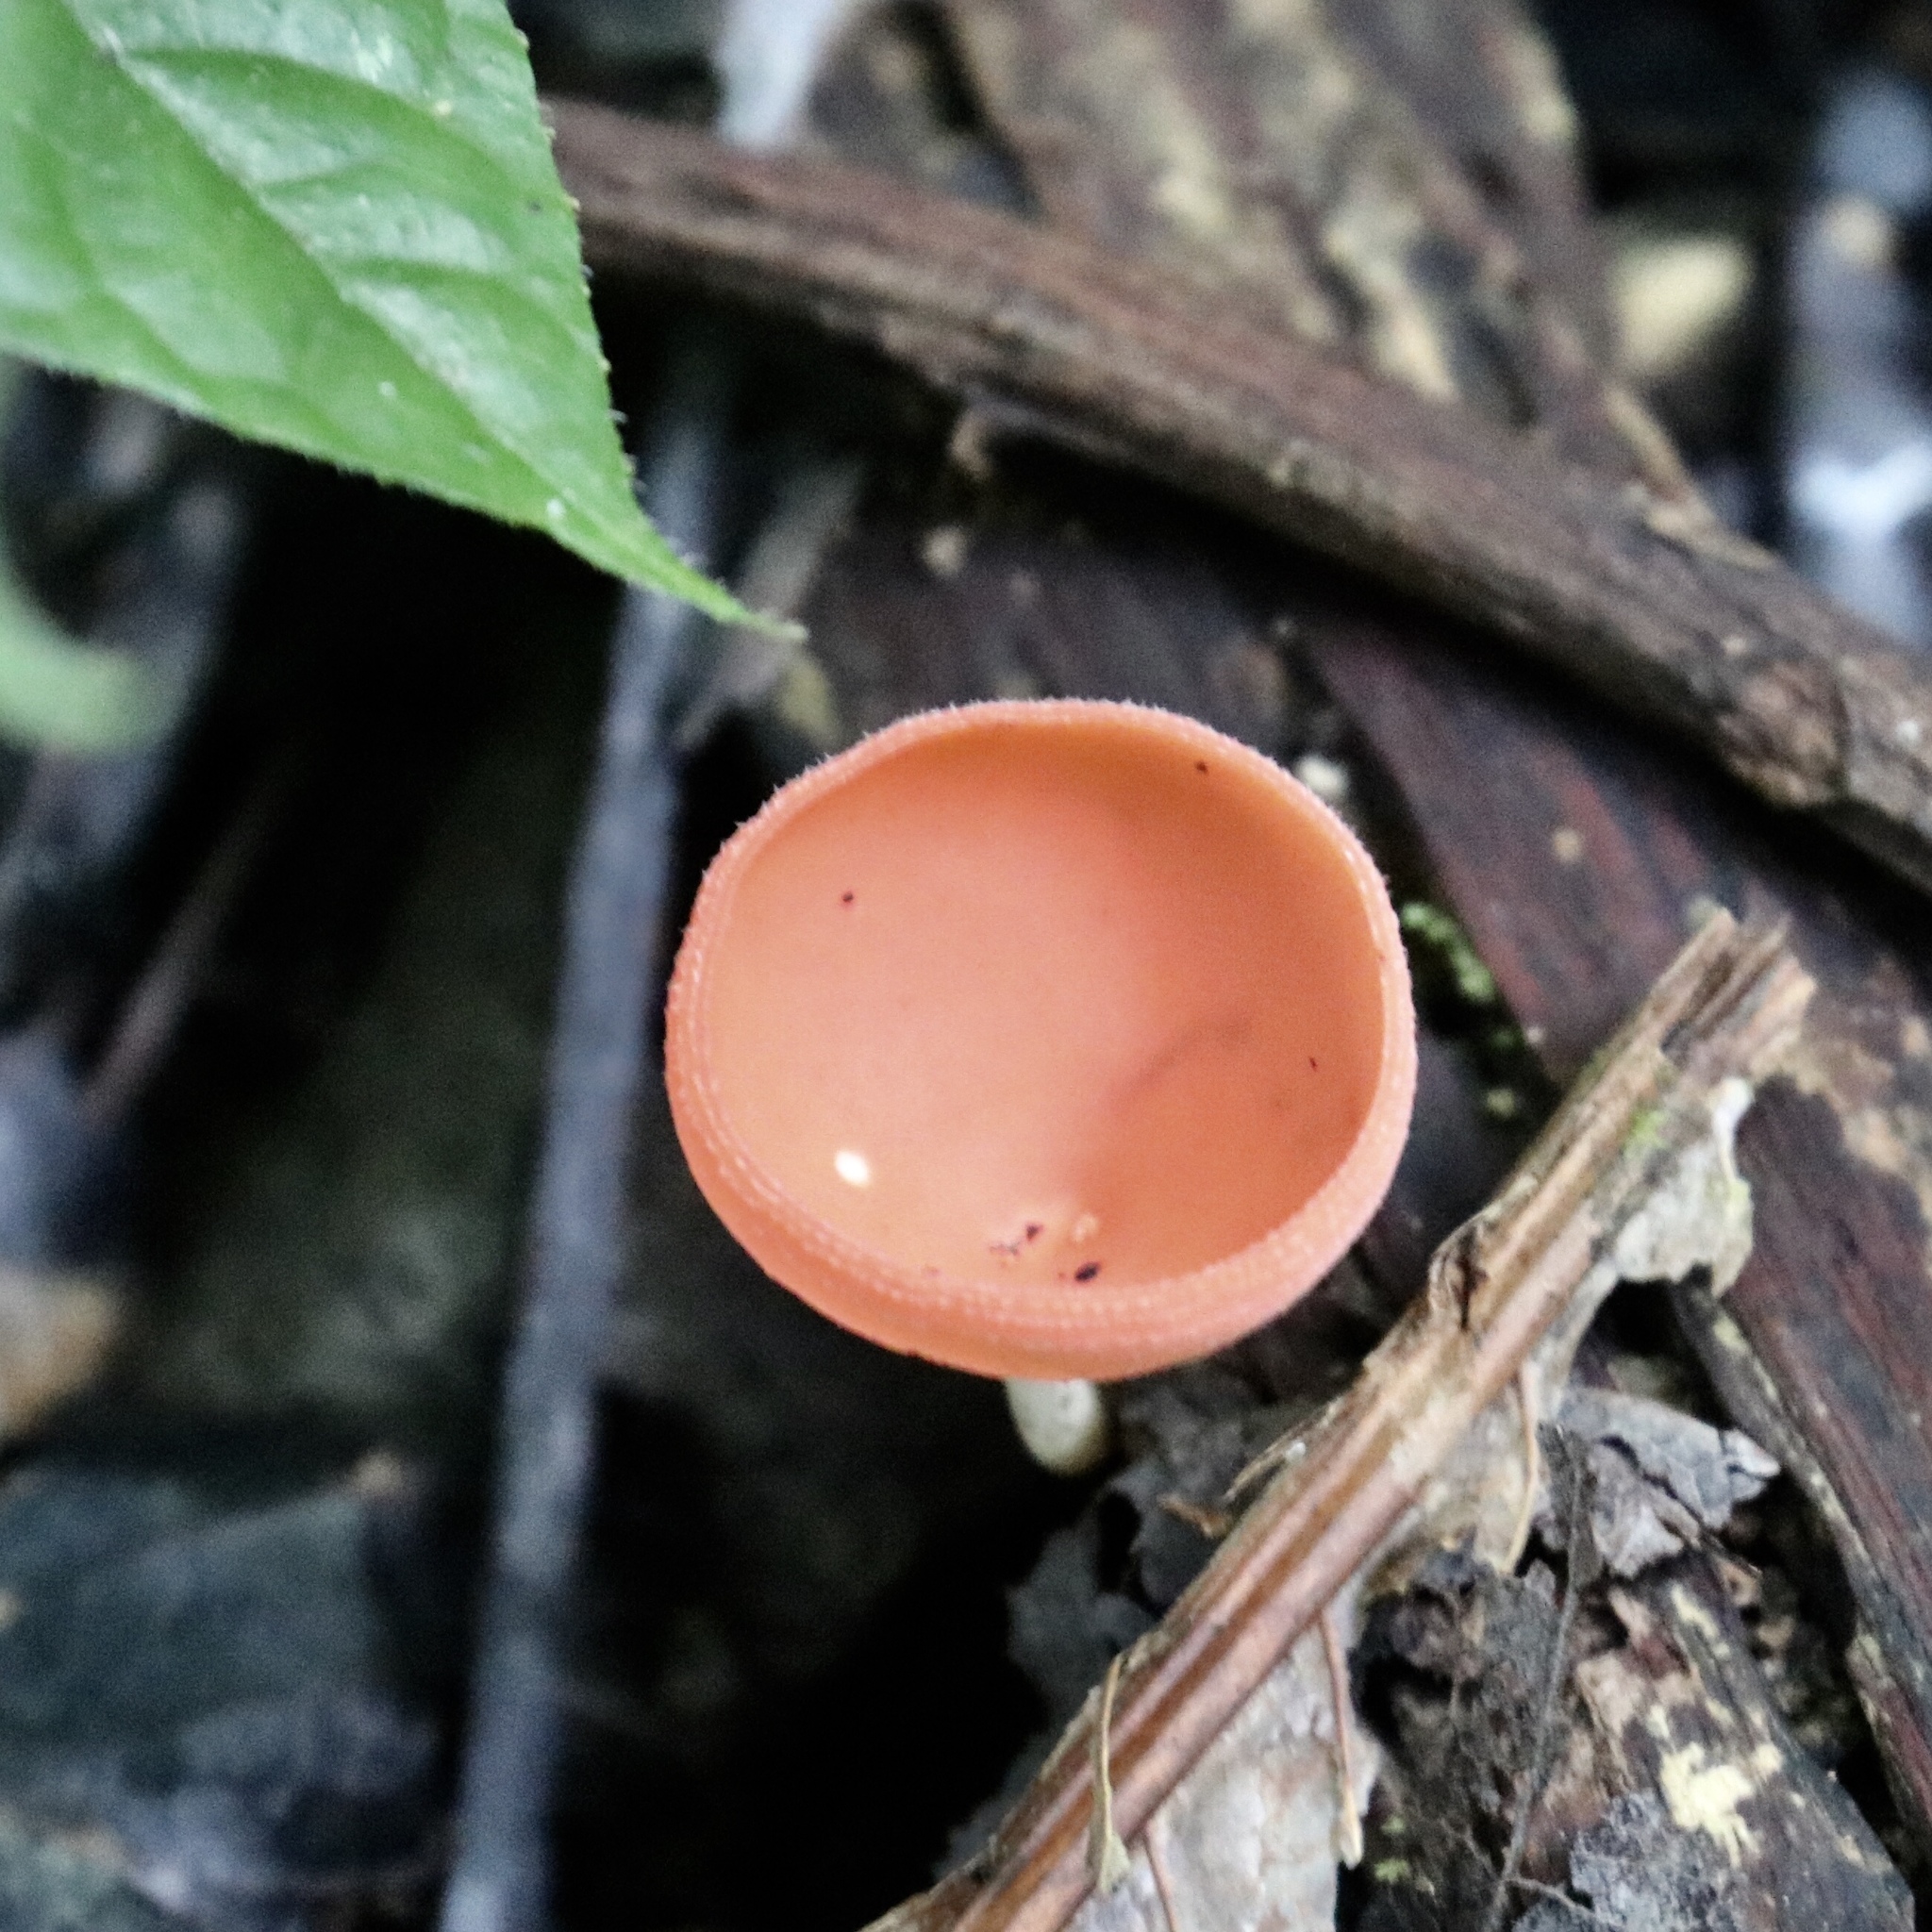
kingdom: Fungi
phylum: Ascomycota
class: Pezizomycetes
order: Pezizales
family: Sarcoscyphaceae
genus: Cookeina
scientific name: Cookeina speciosa
